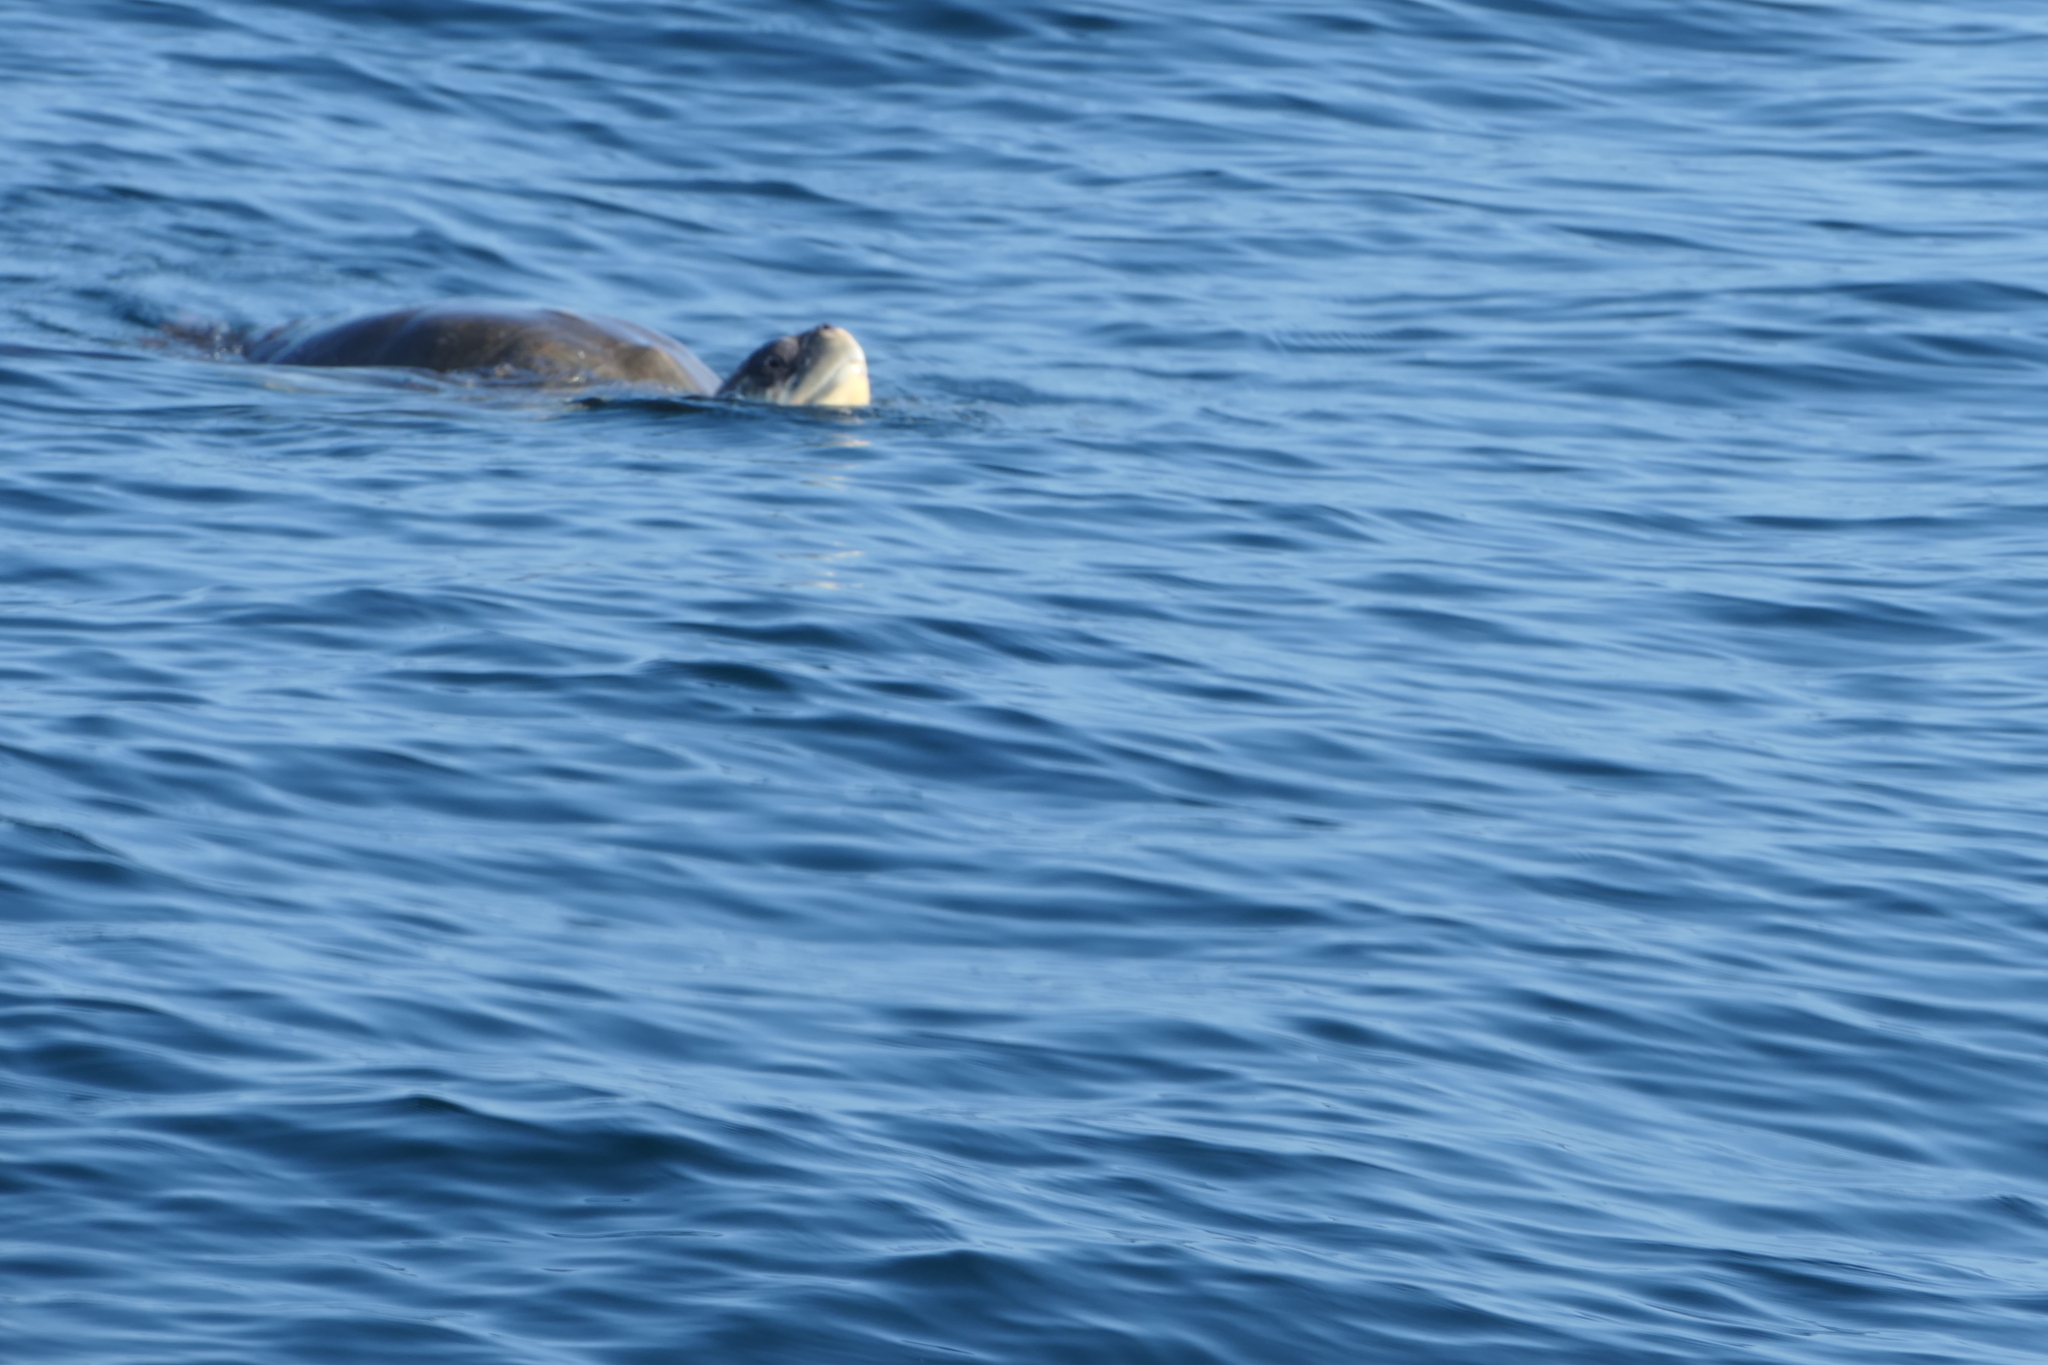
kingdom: Animalia
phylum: Chordata
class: Testudines
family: Cheloniidae
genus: Lepidochelys
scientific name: Lepidochelys olivacea
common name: Olive ridley
